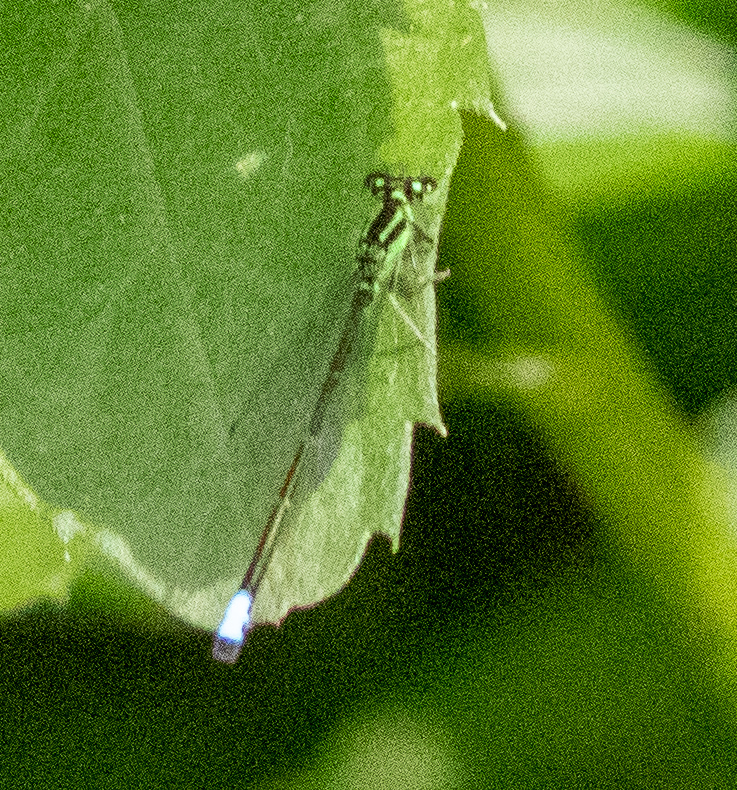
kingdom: Animalia
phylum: Arthropoda
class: Insecta
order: Odonata
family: Coenagrionidae
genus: Ischnura
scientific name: Ischnura verticalis
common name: Eastern forktail
